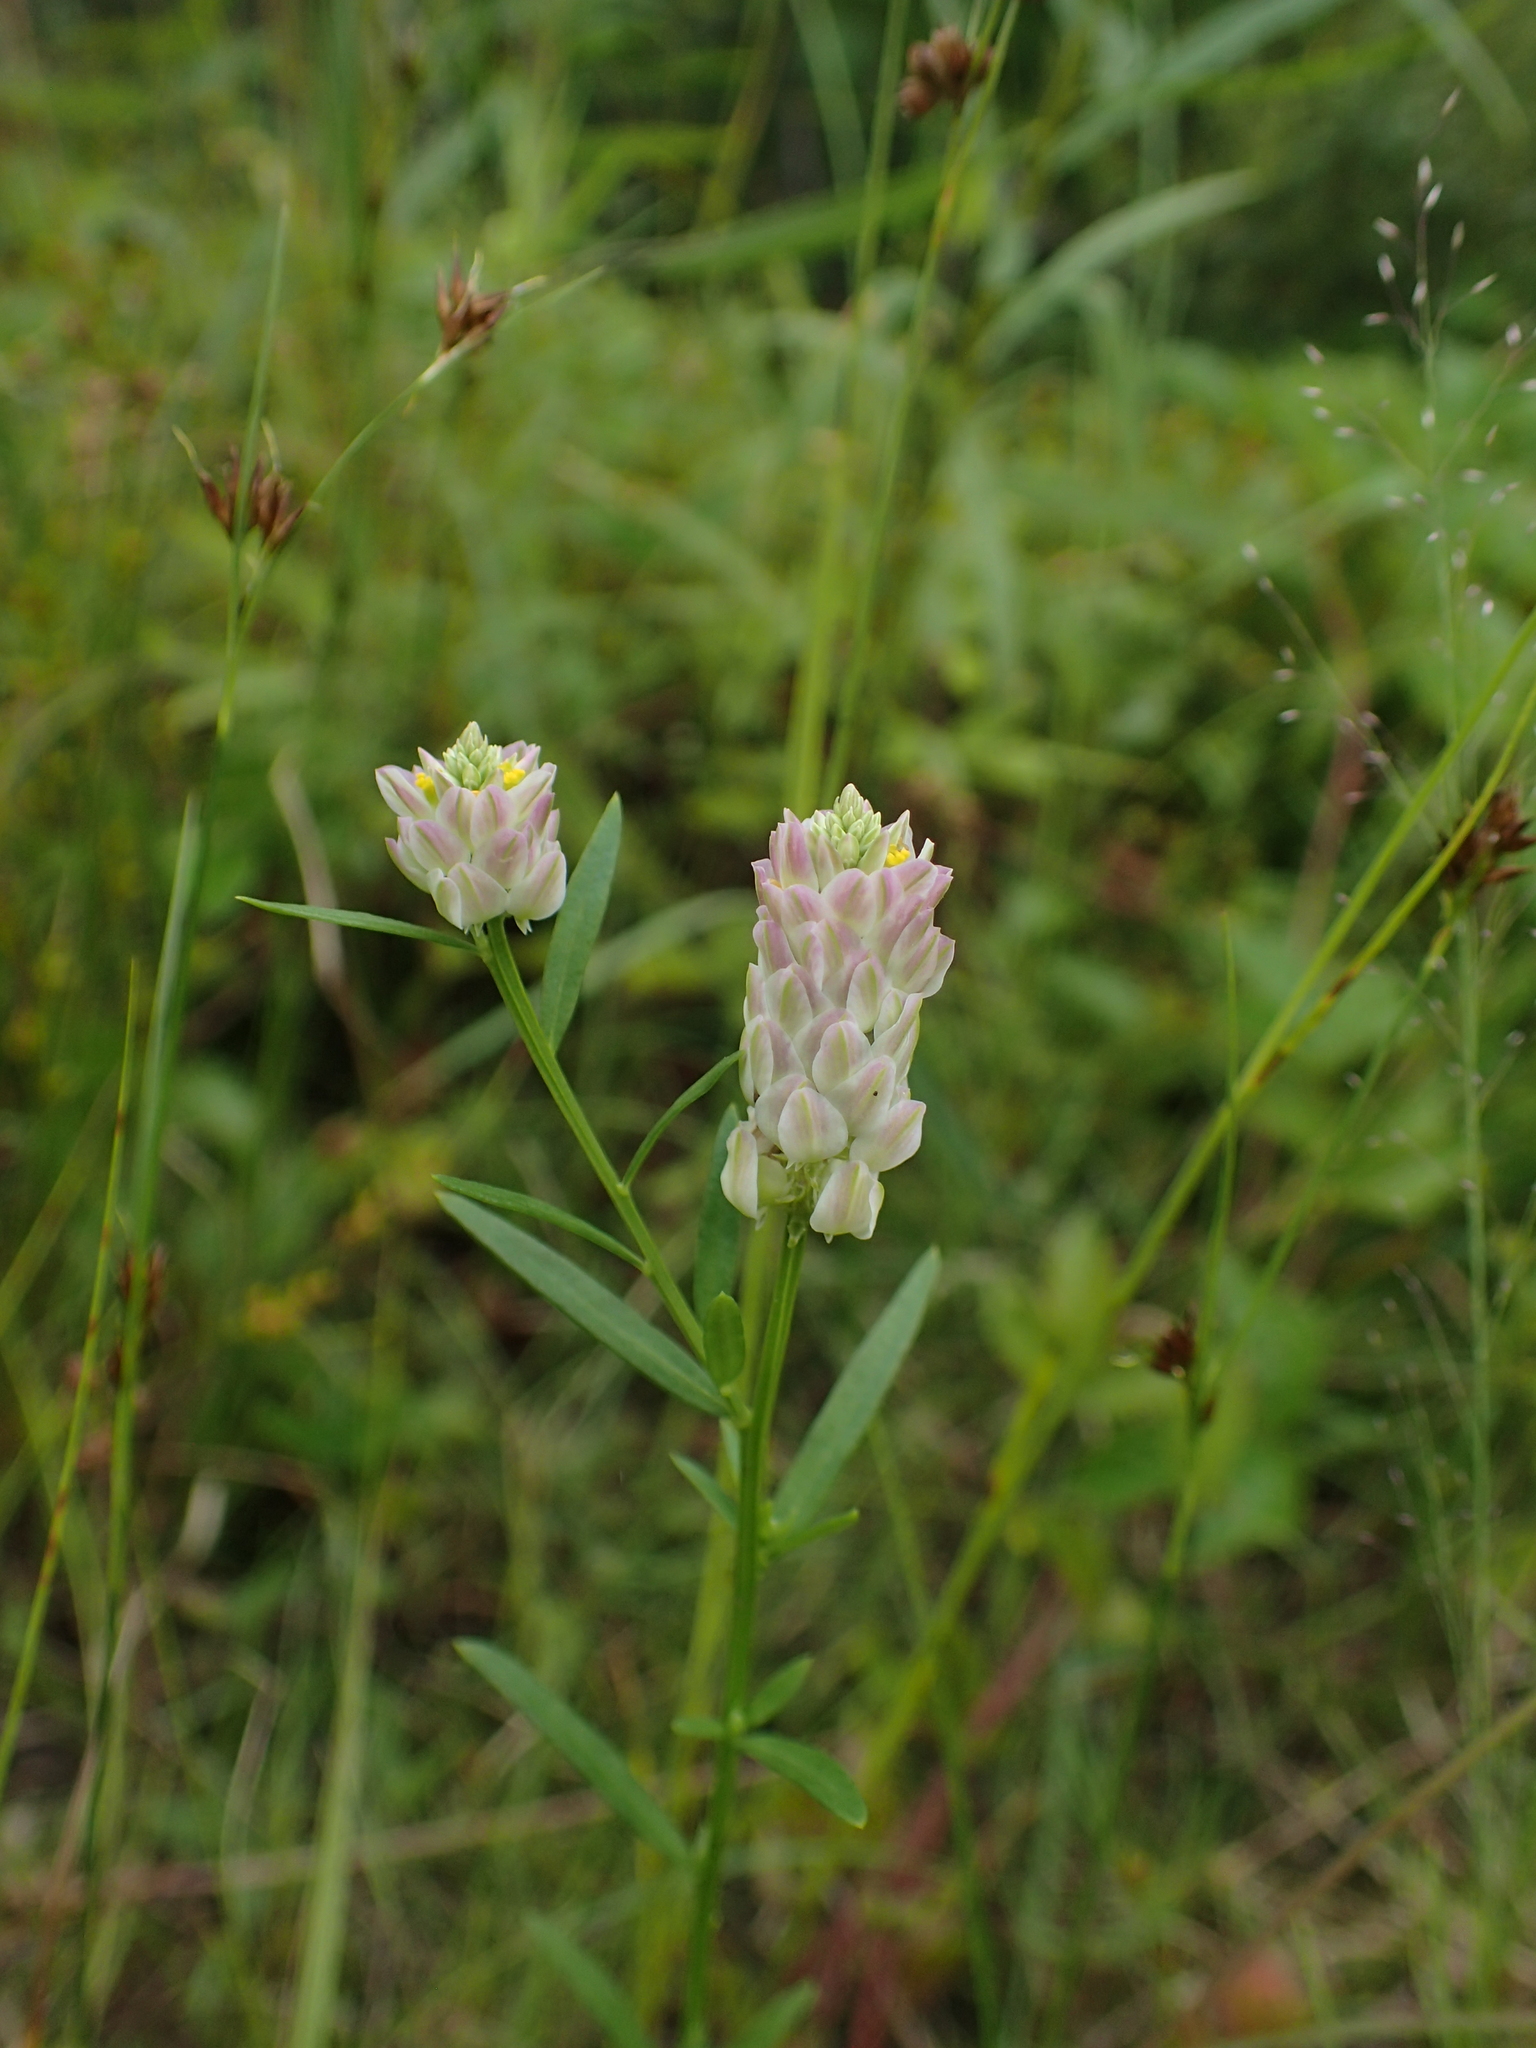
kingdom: Plantae
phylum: Tracheophyta
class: Magnoliopsida
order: Fabales
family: Polygalaceae
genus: Polygala
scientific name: Polygala sanguinea
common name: Blood milkwort
